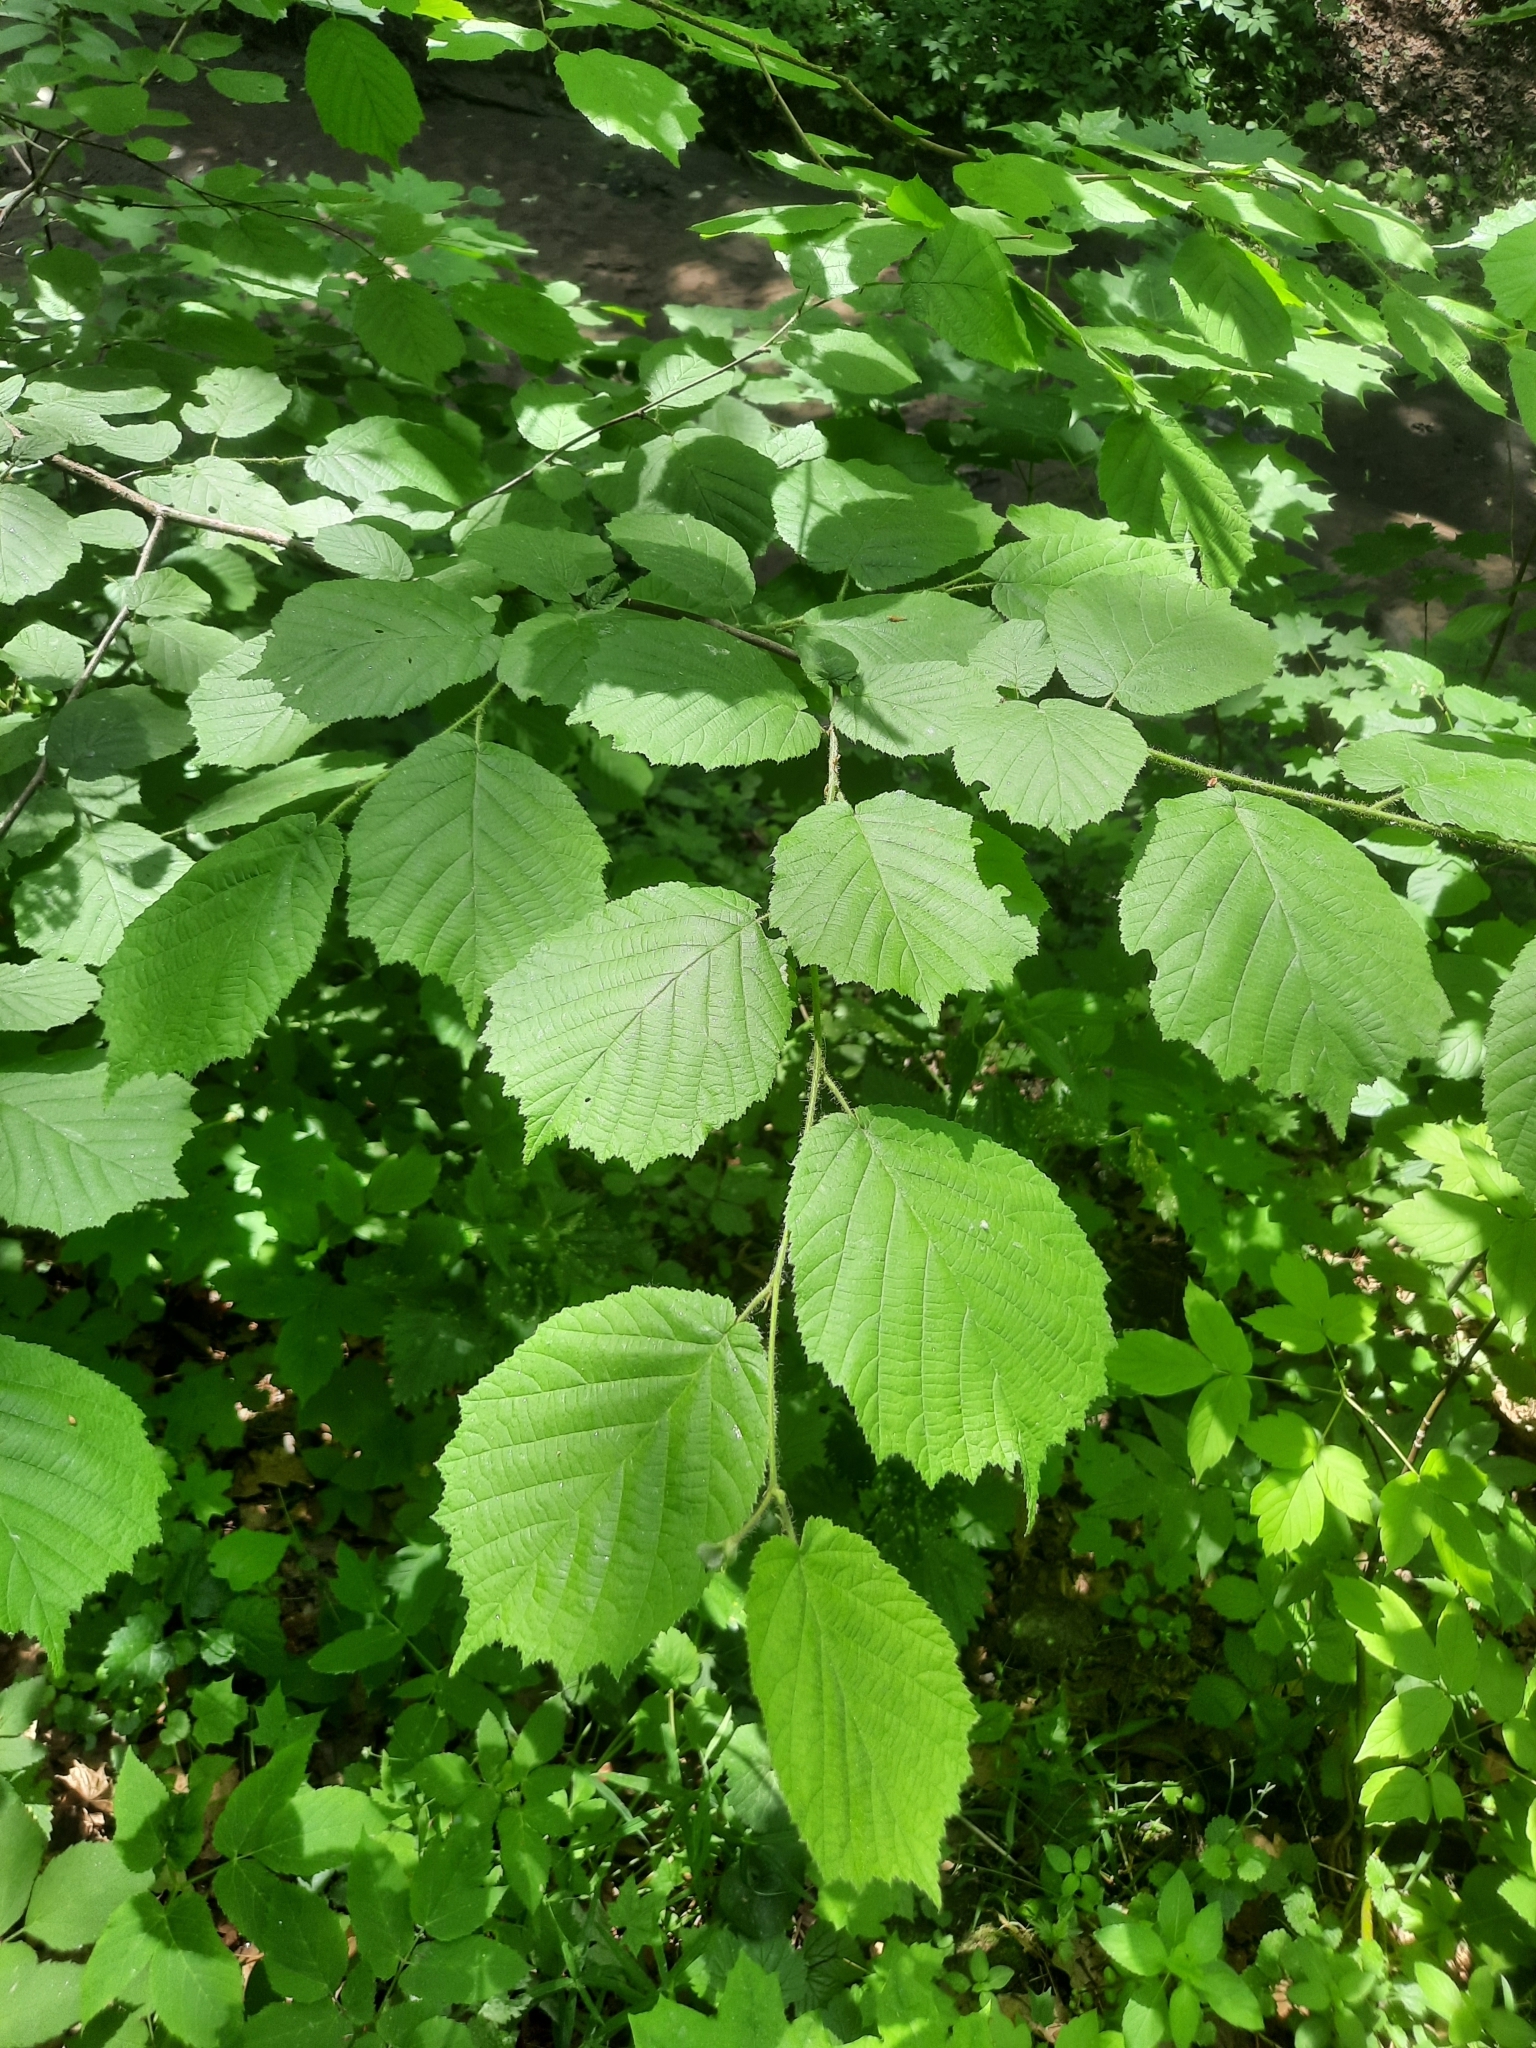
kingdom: Plantae
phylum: Tracheophyta
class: Magnoliopsida
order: Fagales
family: Betulaceae
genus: Corylus
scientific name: Corylus avellana
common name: European hazel
